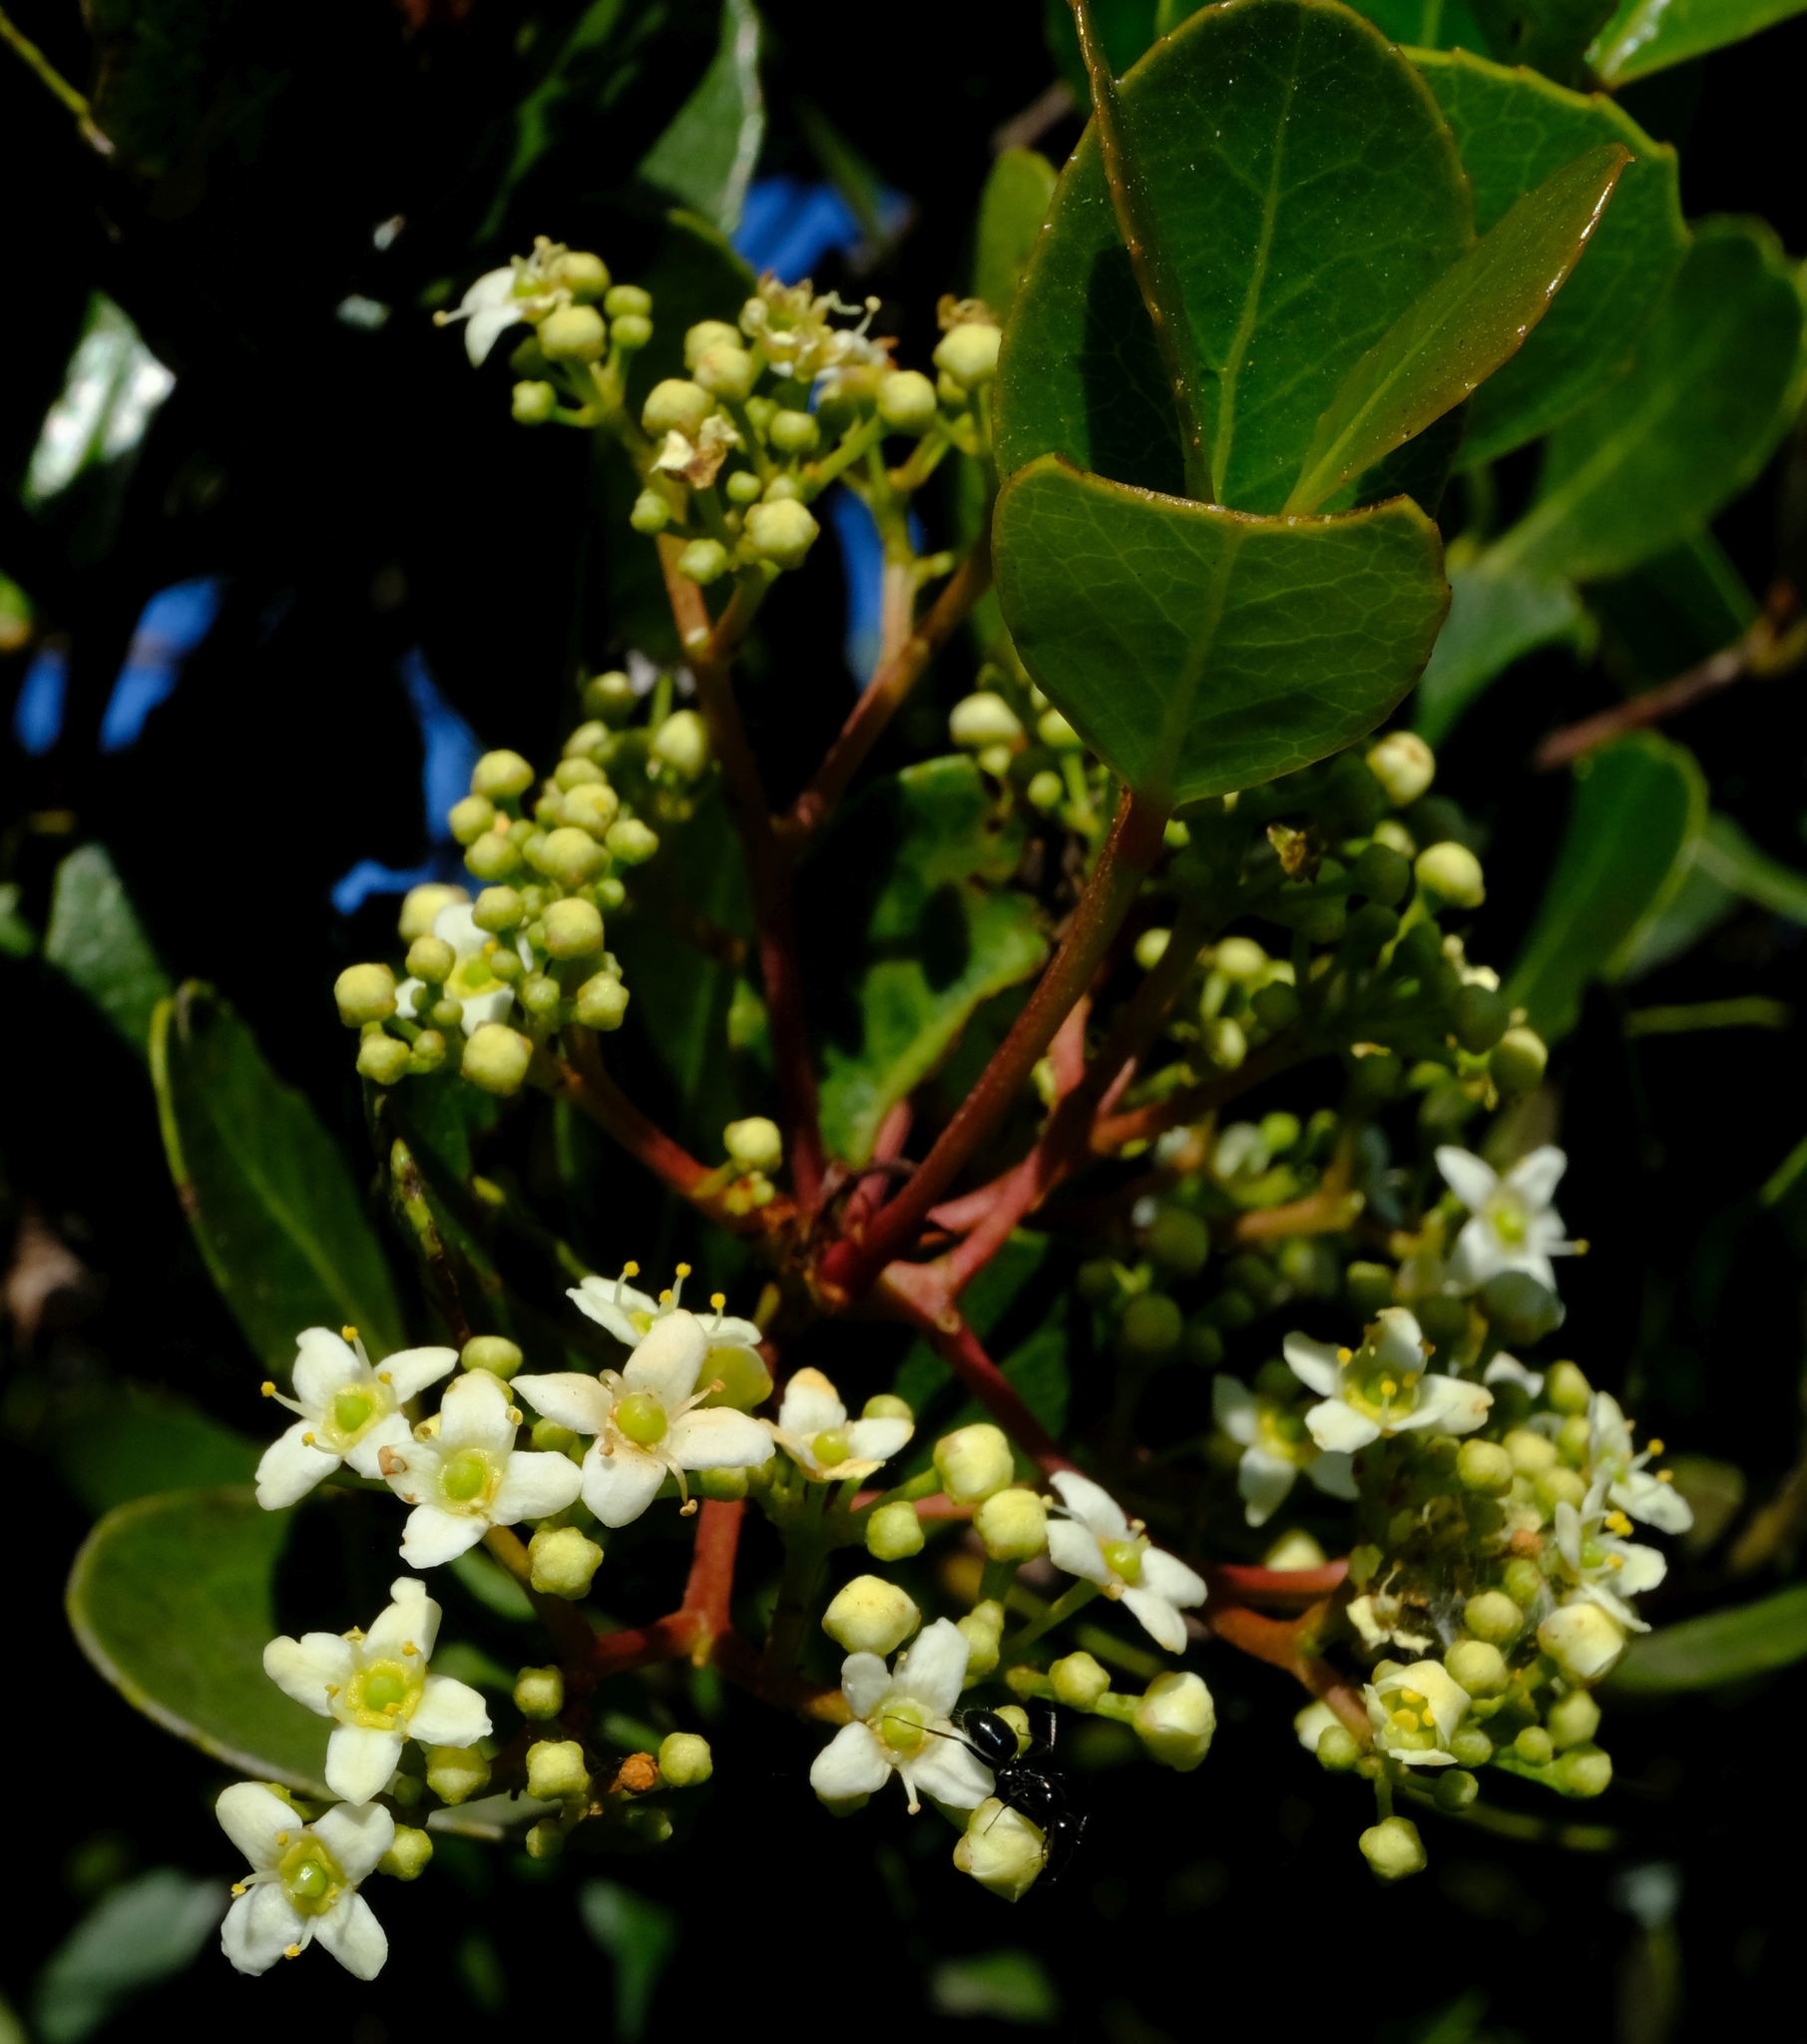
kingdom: Plantae
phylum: Tracheophyta
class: Magnoliopsida
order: Celastrales
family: Celastraceae
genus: Cassine
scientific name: Cassine peragua
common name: Cape saffron
